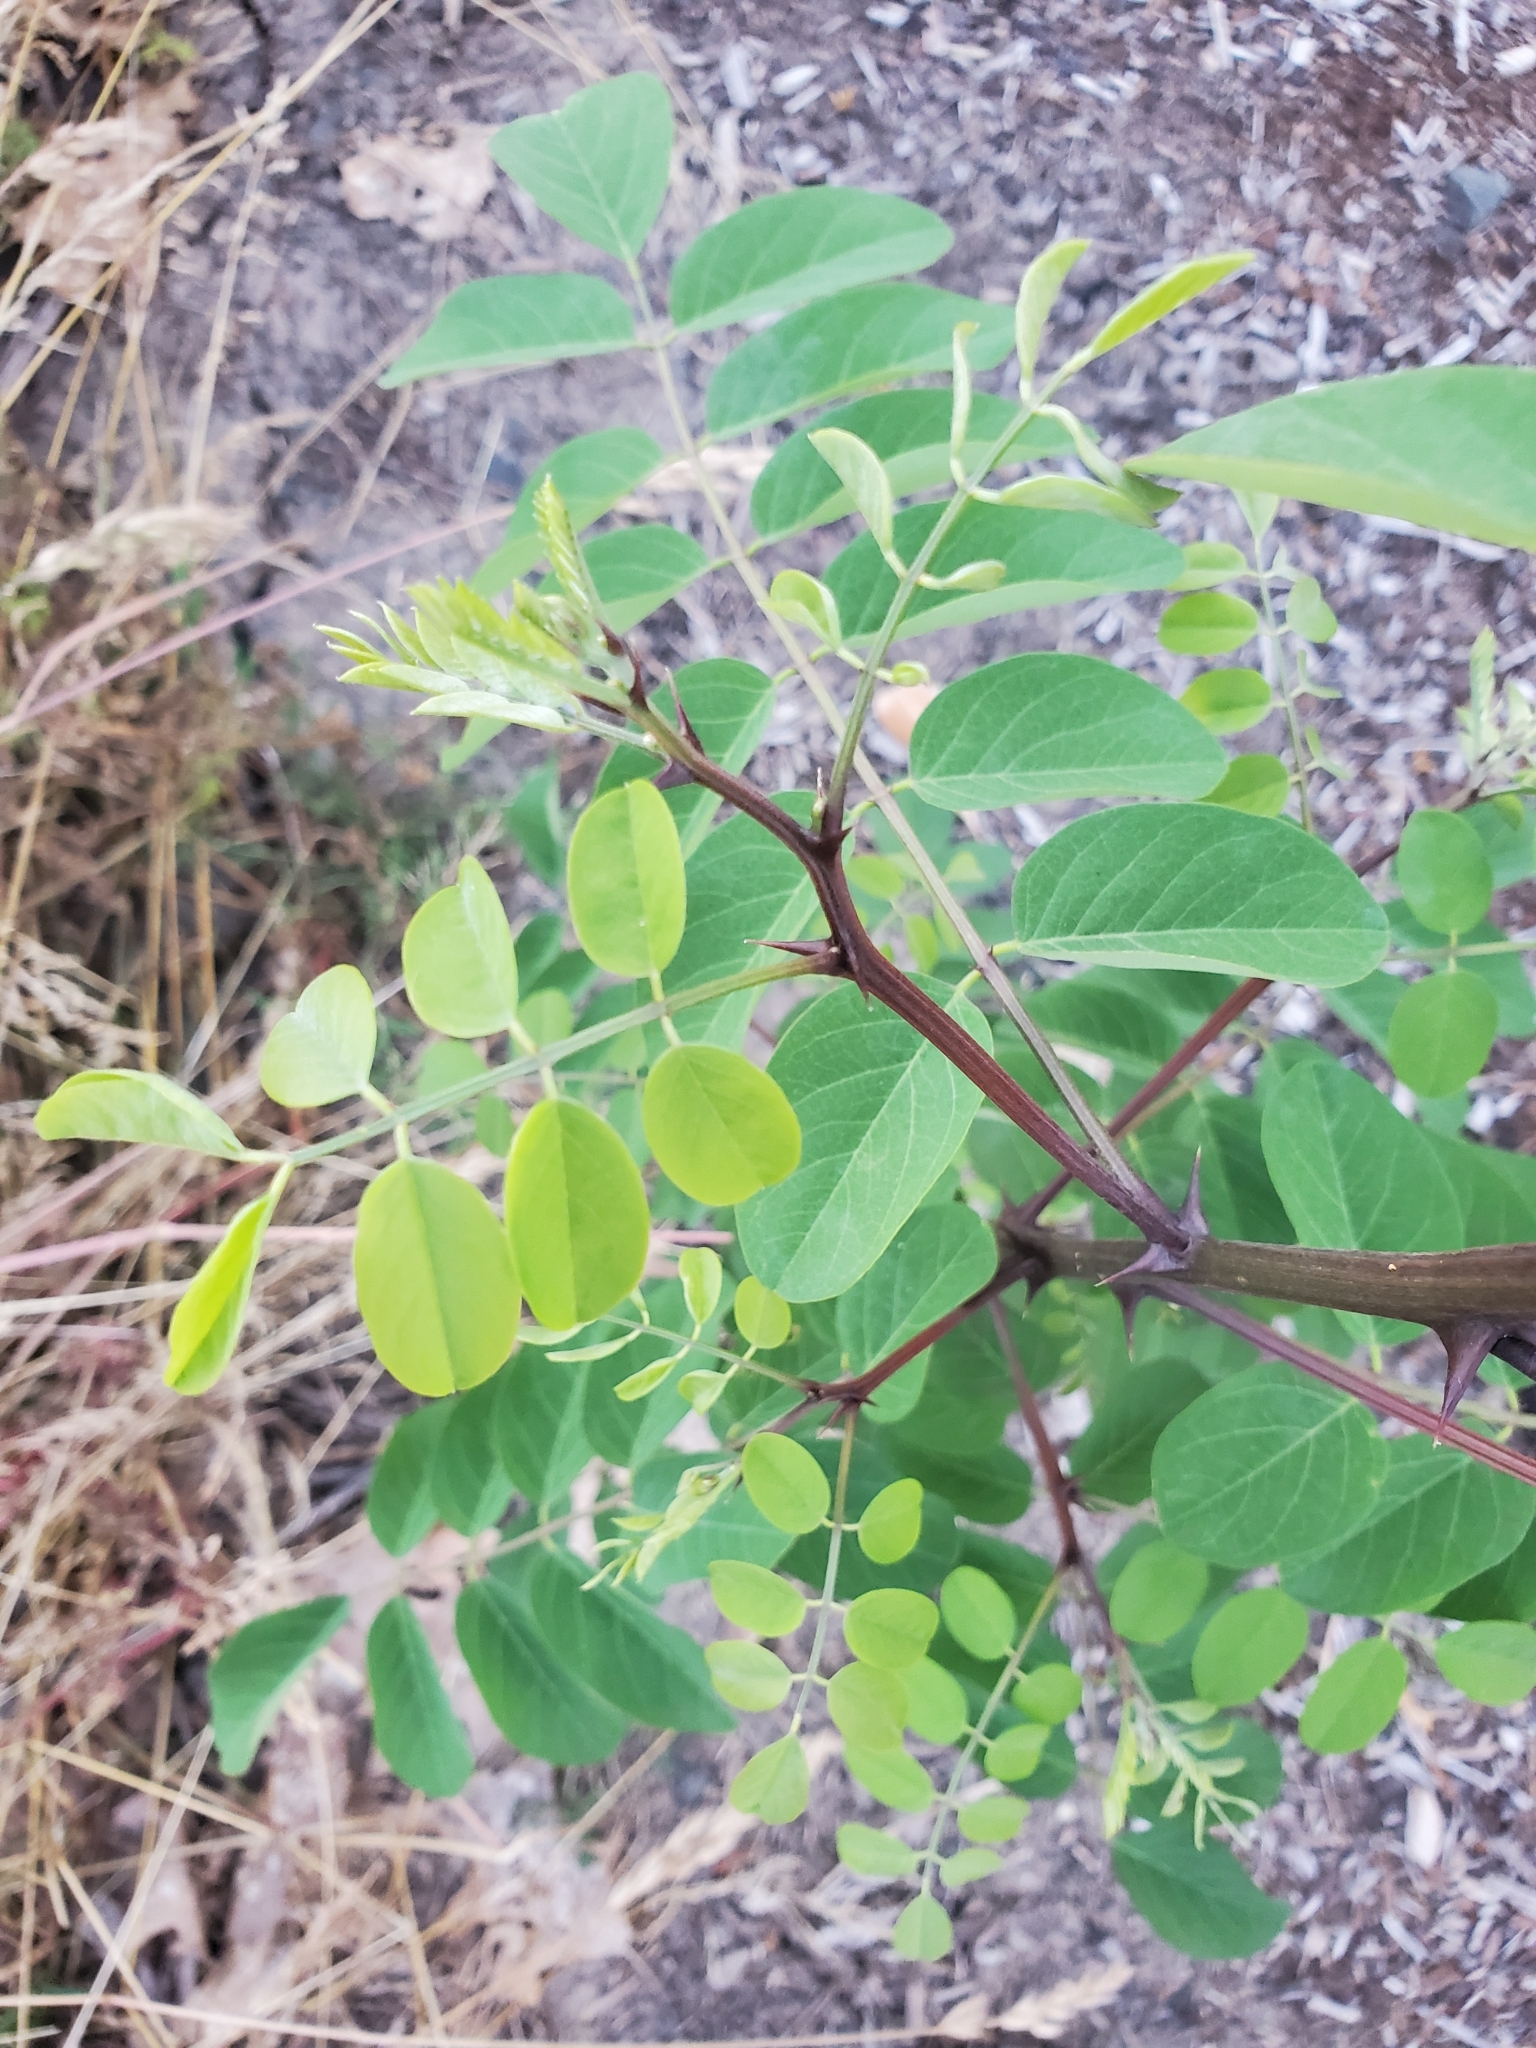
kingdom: Plantae
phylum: Tracheophyta
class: Magnoliopsida
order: Fabales
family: Fabaceae
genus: Robinia
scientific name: Robinia pseudoacacia
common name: Black locust
